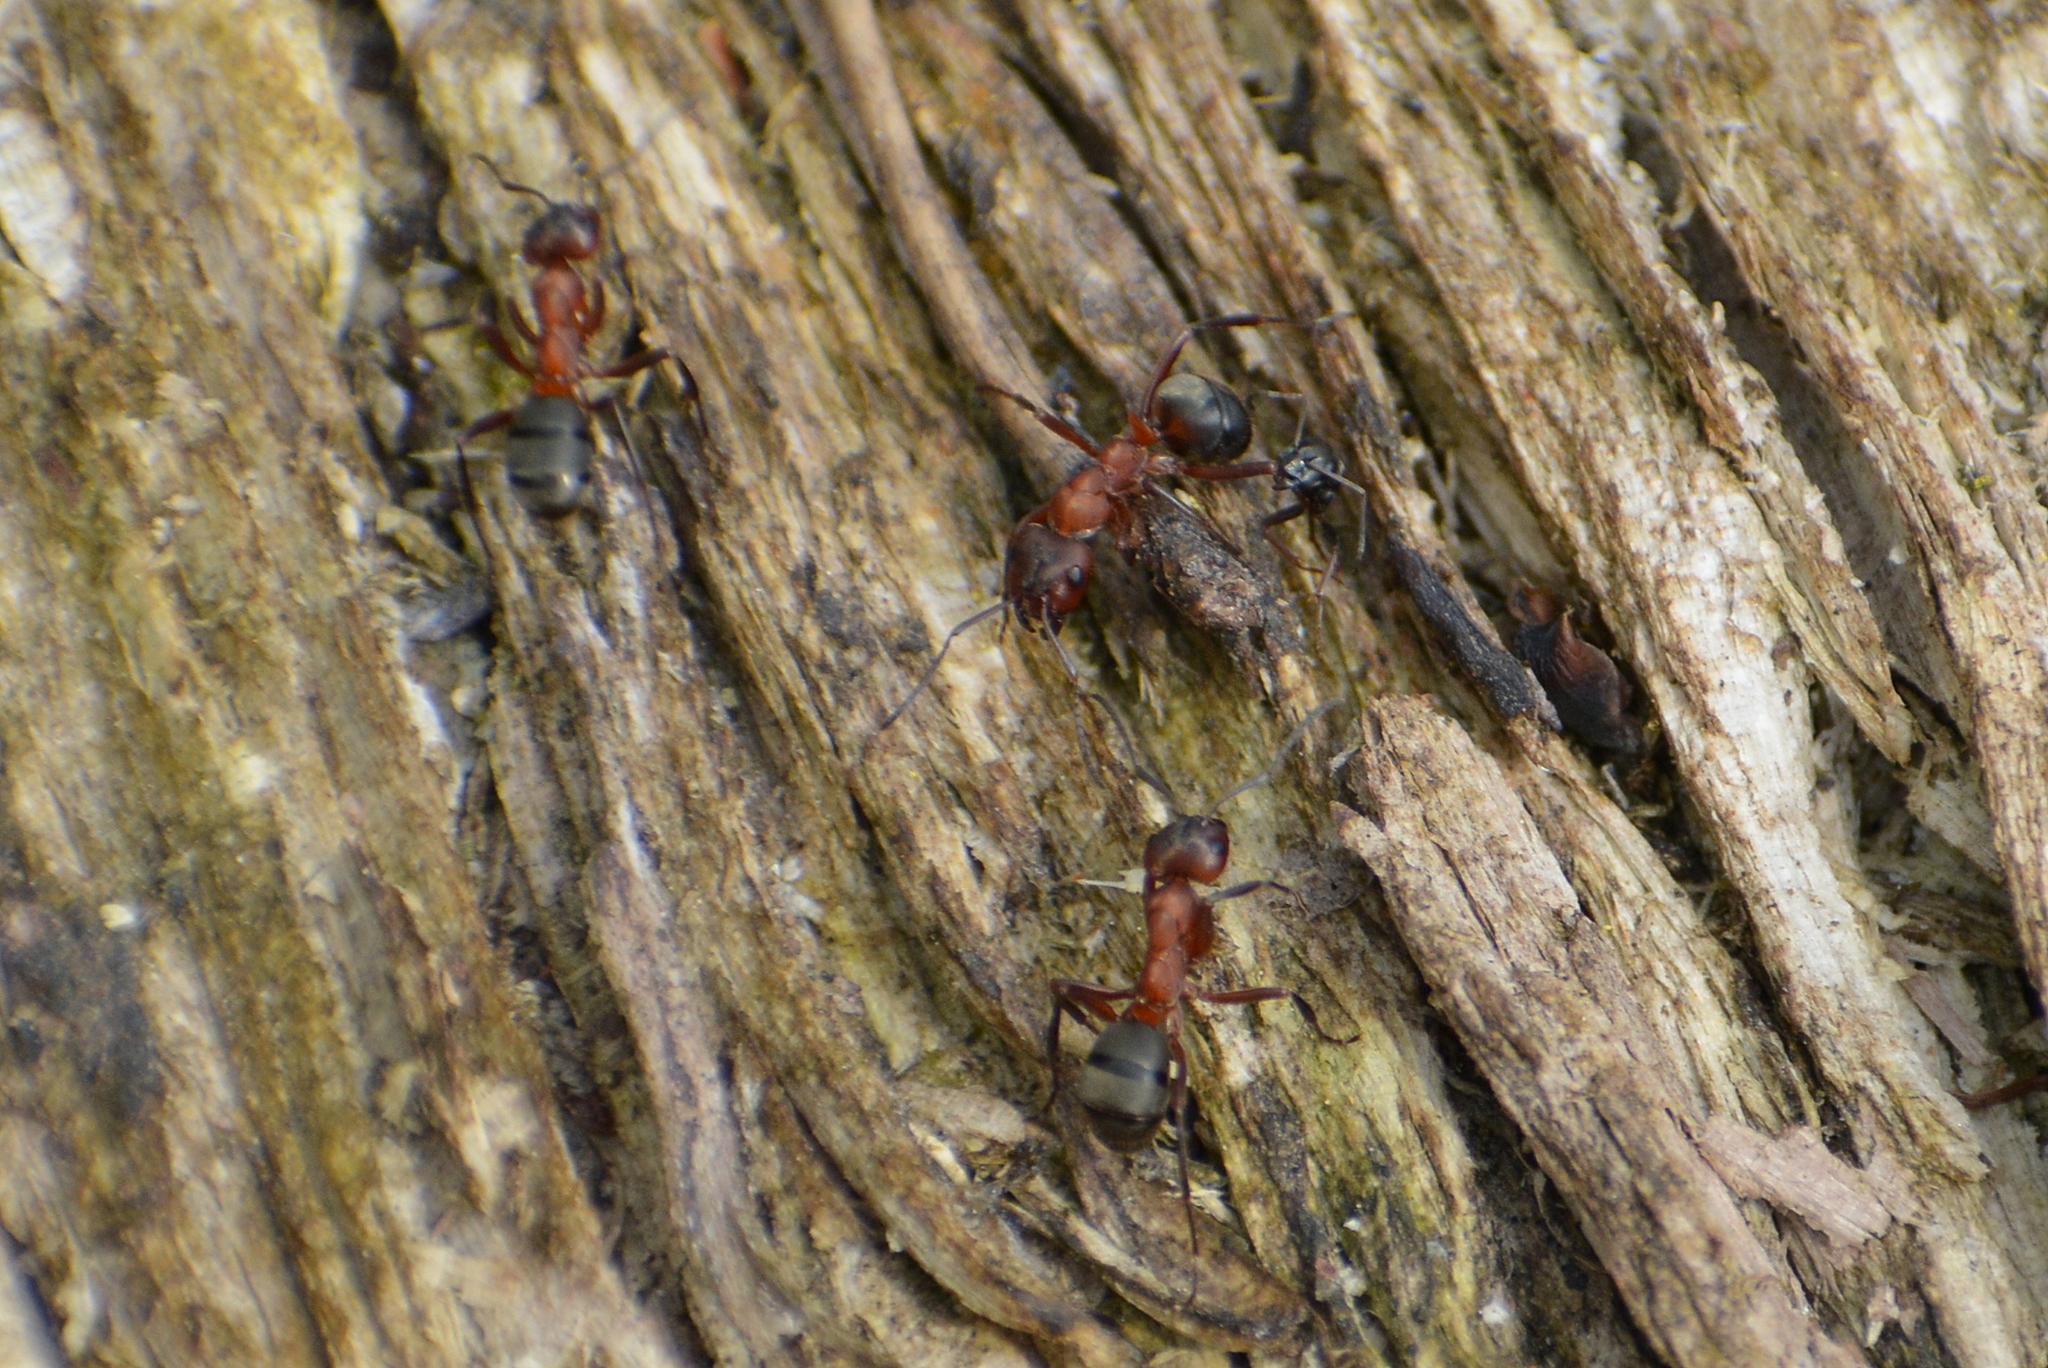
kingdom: Animalia
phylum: Arthropoda
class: Insecta
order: Hymenoptera
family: Formicidae
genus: Formica
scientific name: Formica sanguinea
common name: Blood-red ant
